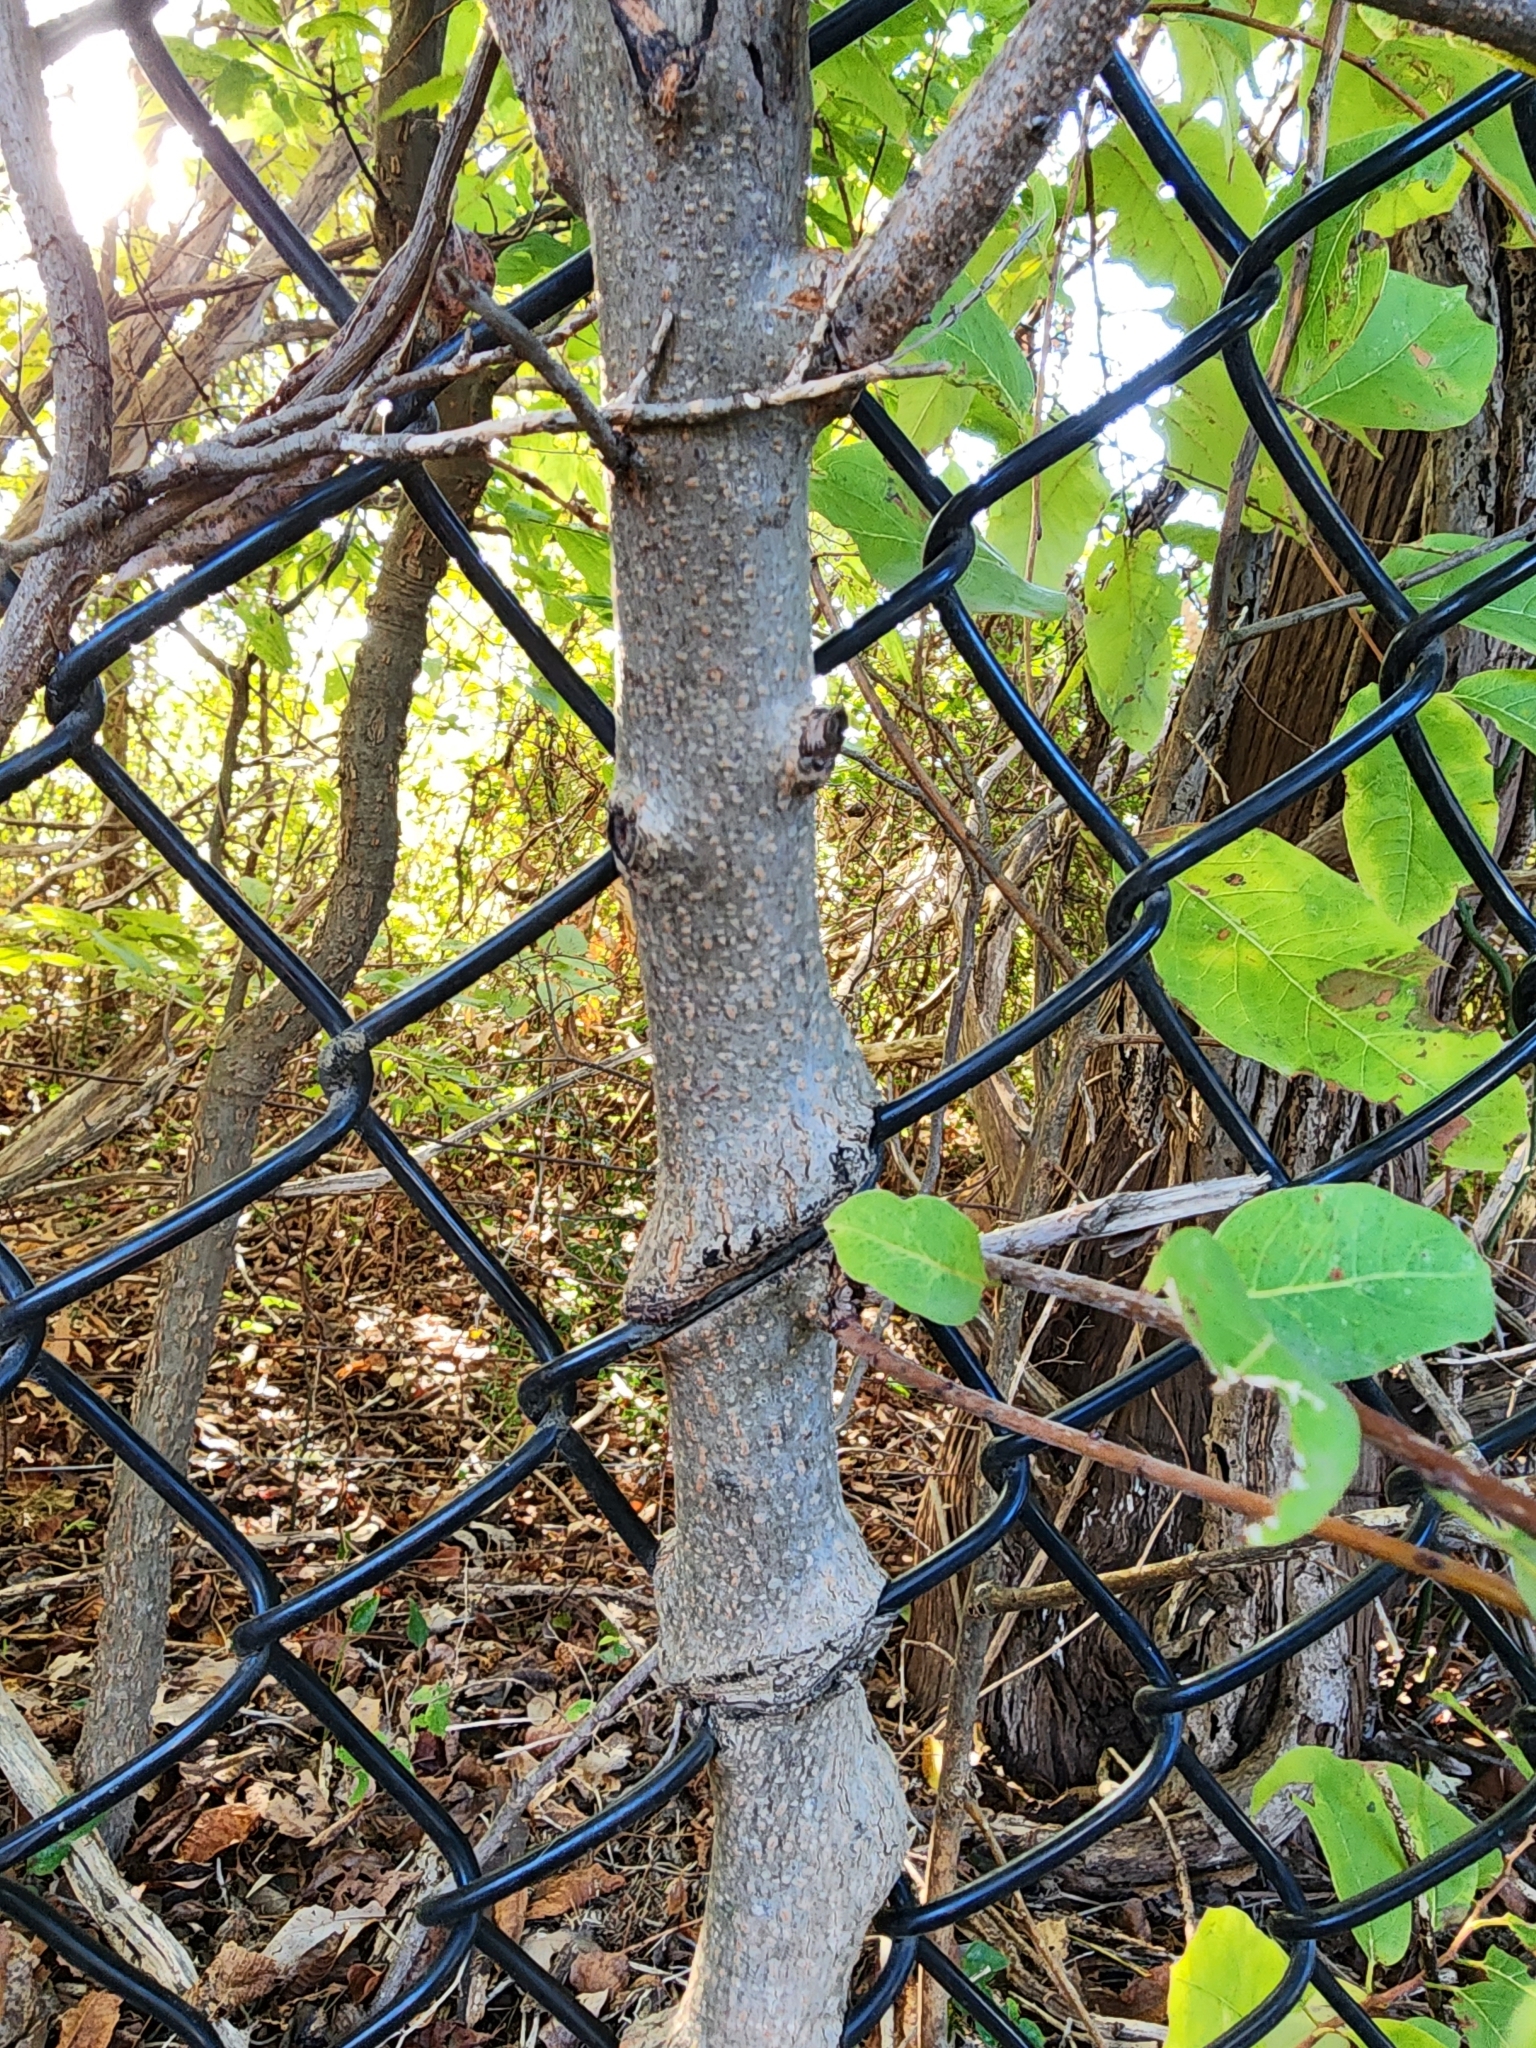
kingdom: Plantae
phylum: Tracheophyta
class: Magnoliopsida
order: Ericales
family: Ebenaceae
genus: Diospyros
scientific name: Diospyros virginiana
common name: Persimmon
